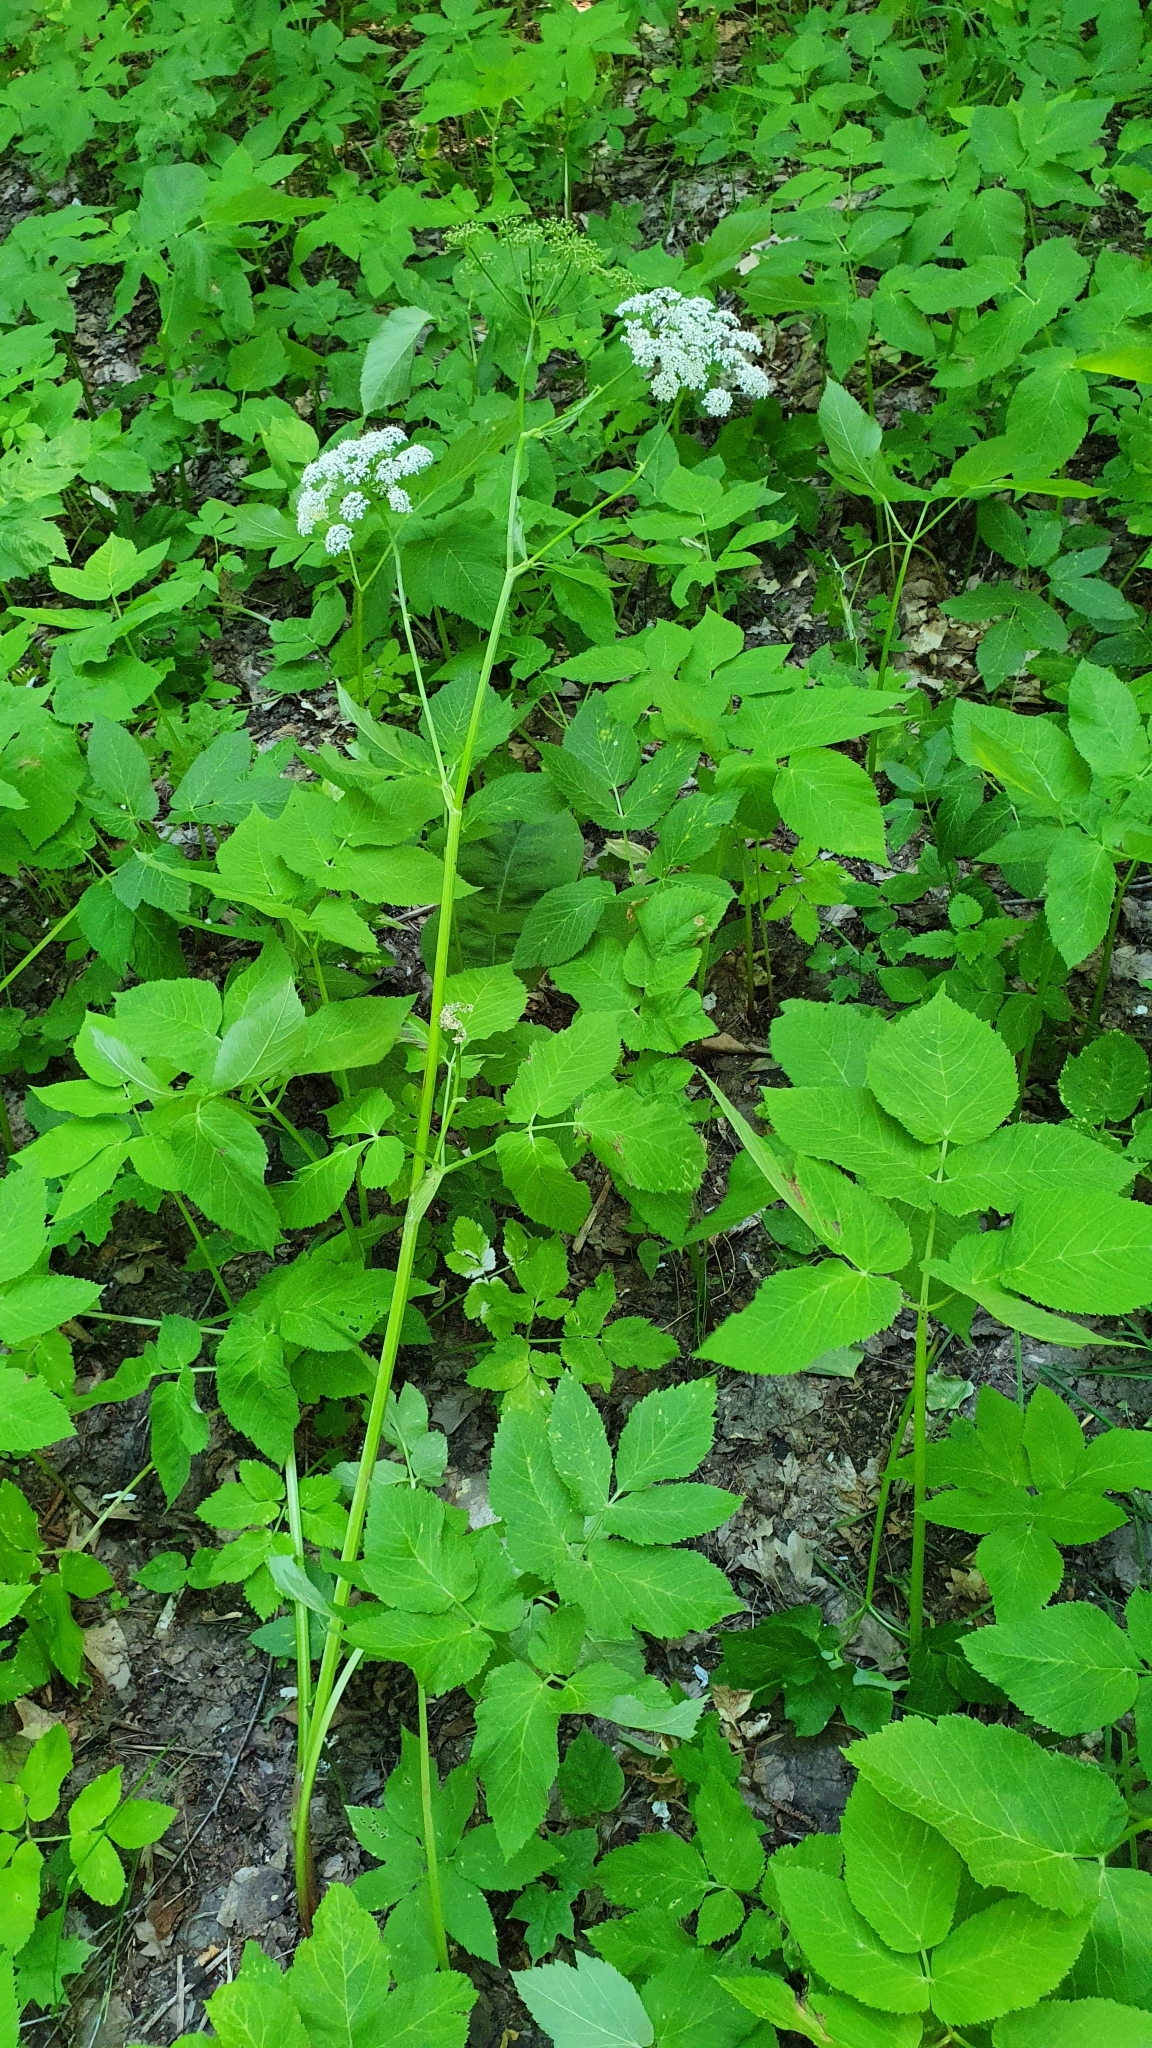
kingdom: Plantae
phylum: Tracheophyta
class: Magnoliopsida
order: Apiales
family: Apiaceae
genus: Aegopodium
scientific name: Aegopodium podagraria
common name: Ground-elder
